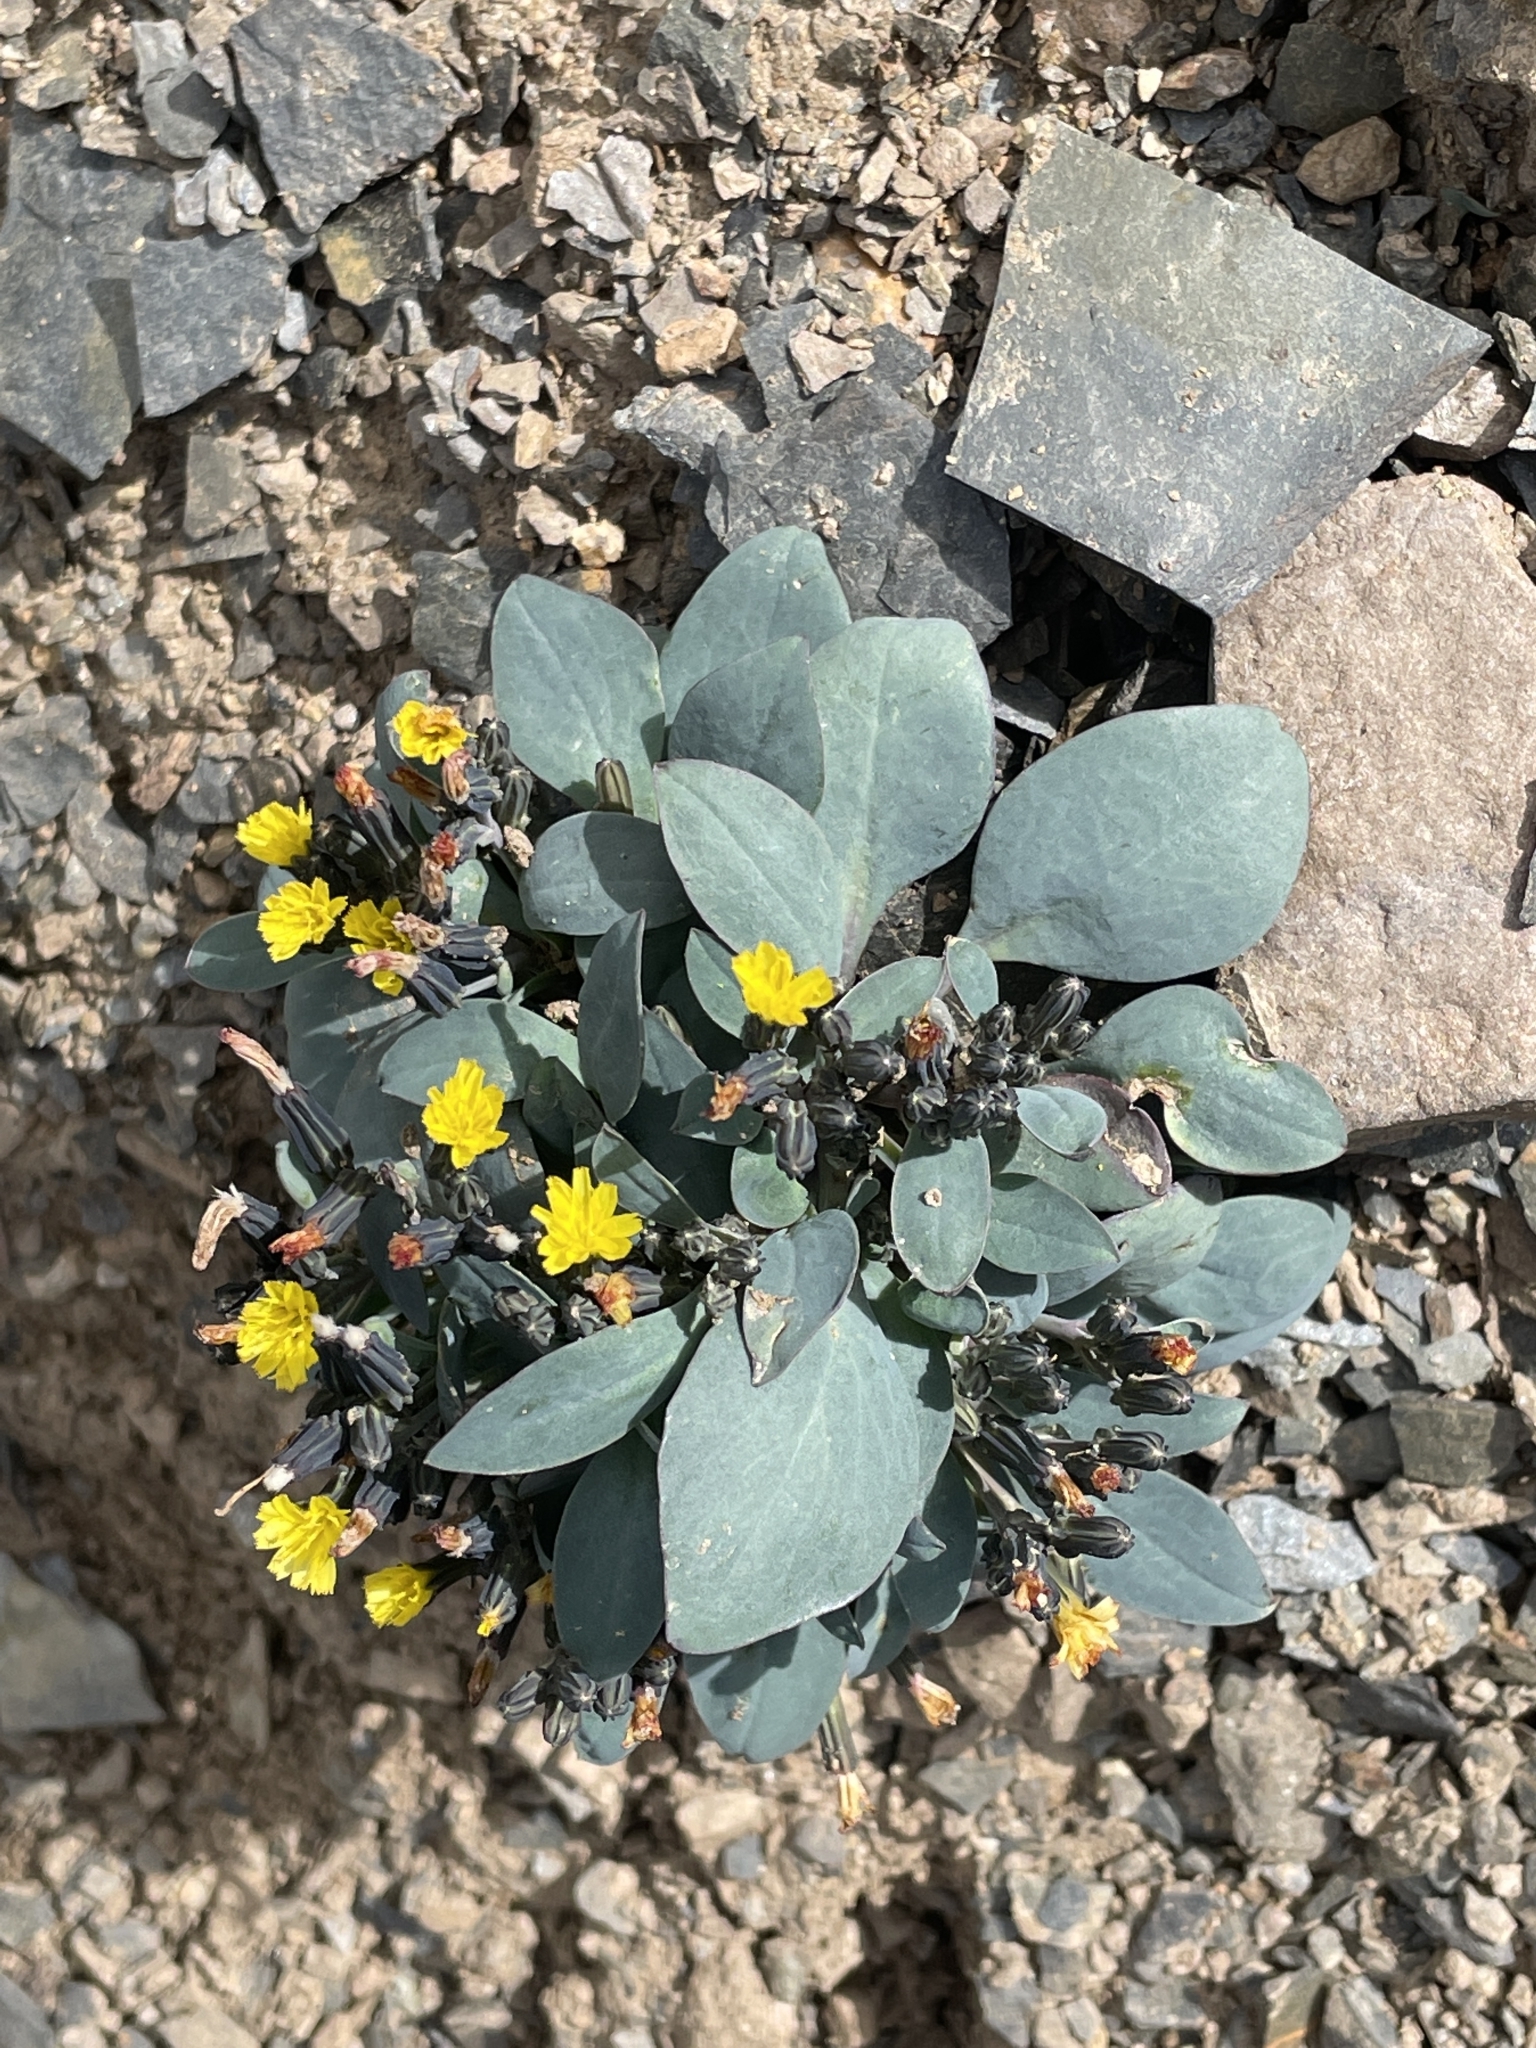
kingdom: Plantae
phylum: Tracheophyta
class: Magnoliopsida
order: Asterales
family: Asteraceae
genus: Askellia
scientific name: Askellia pygmaea
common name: Dwarf alpine hawksbeard
